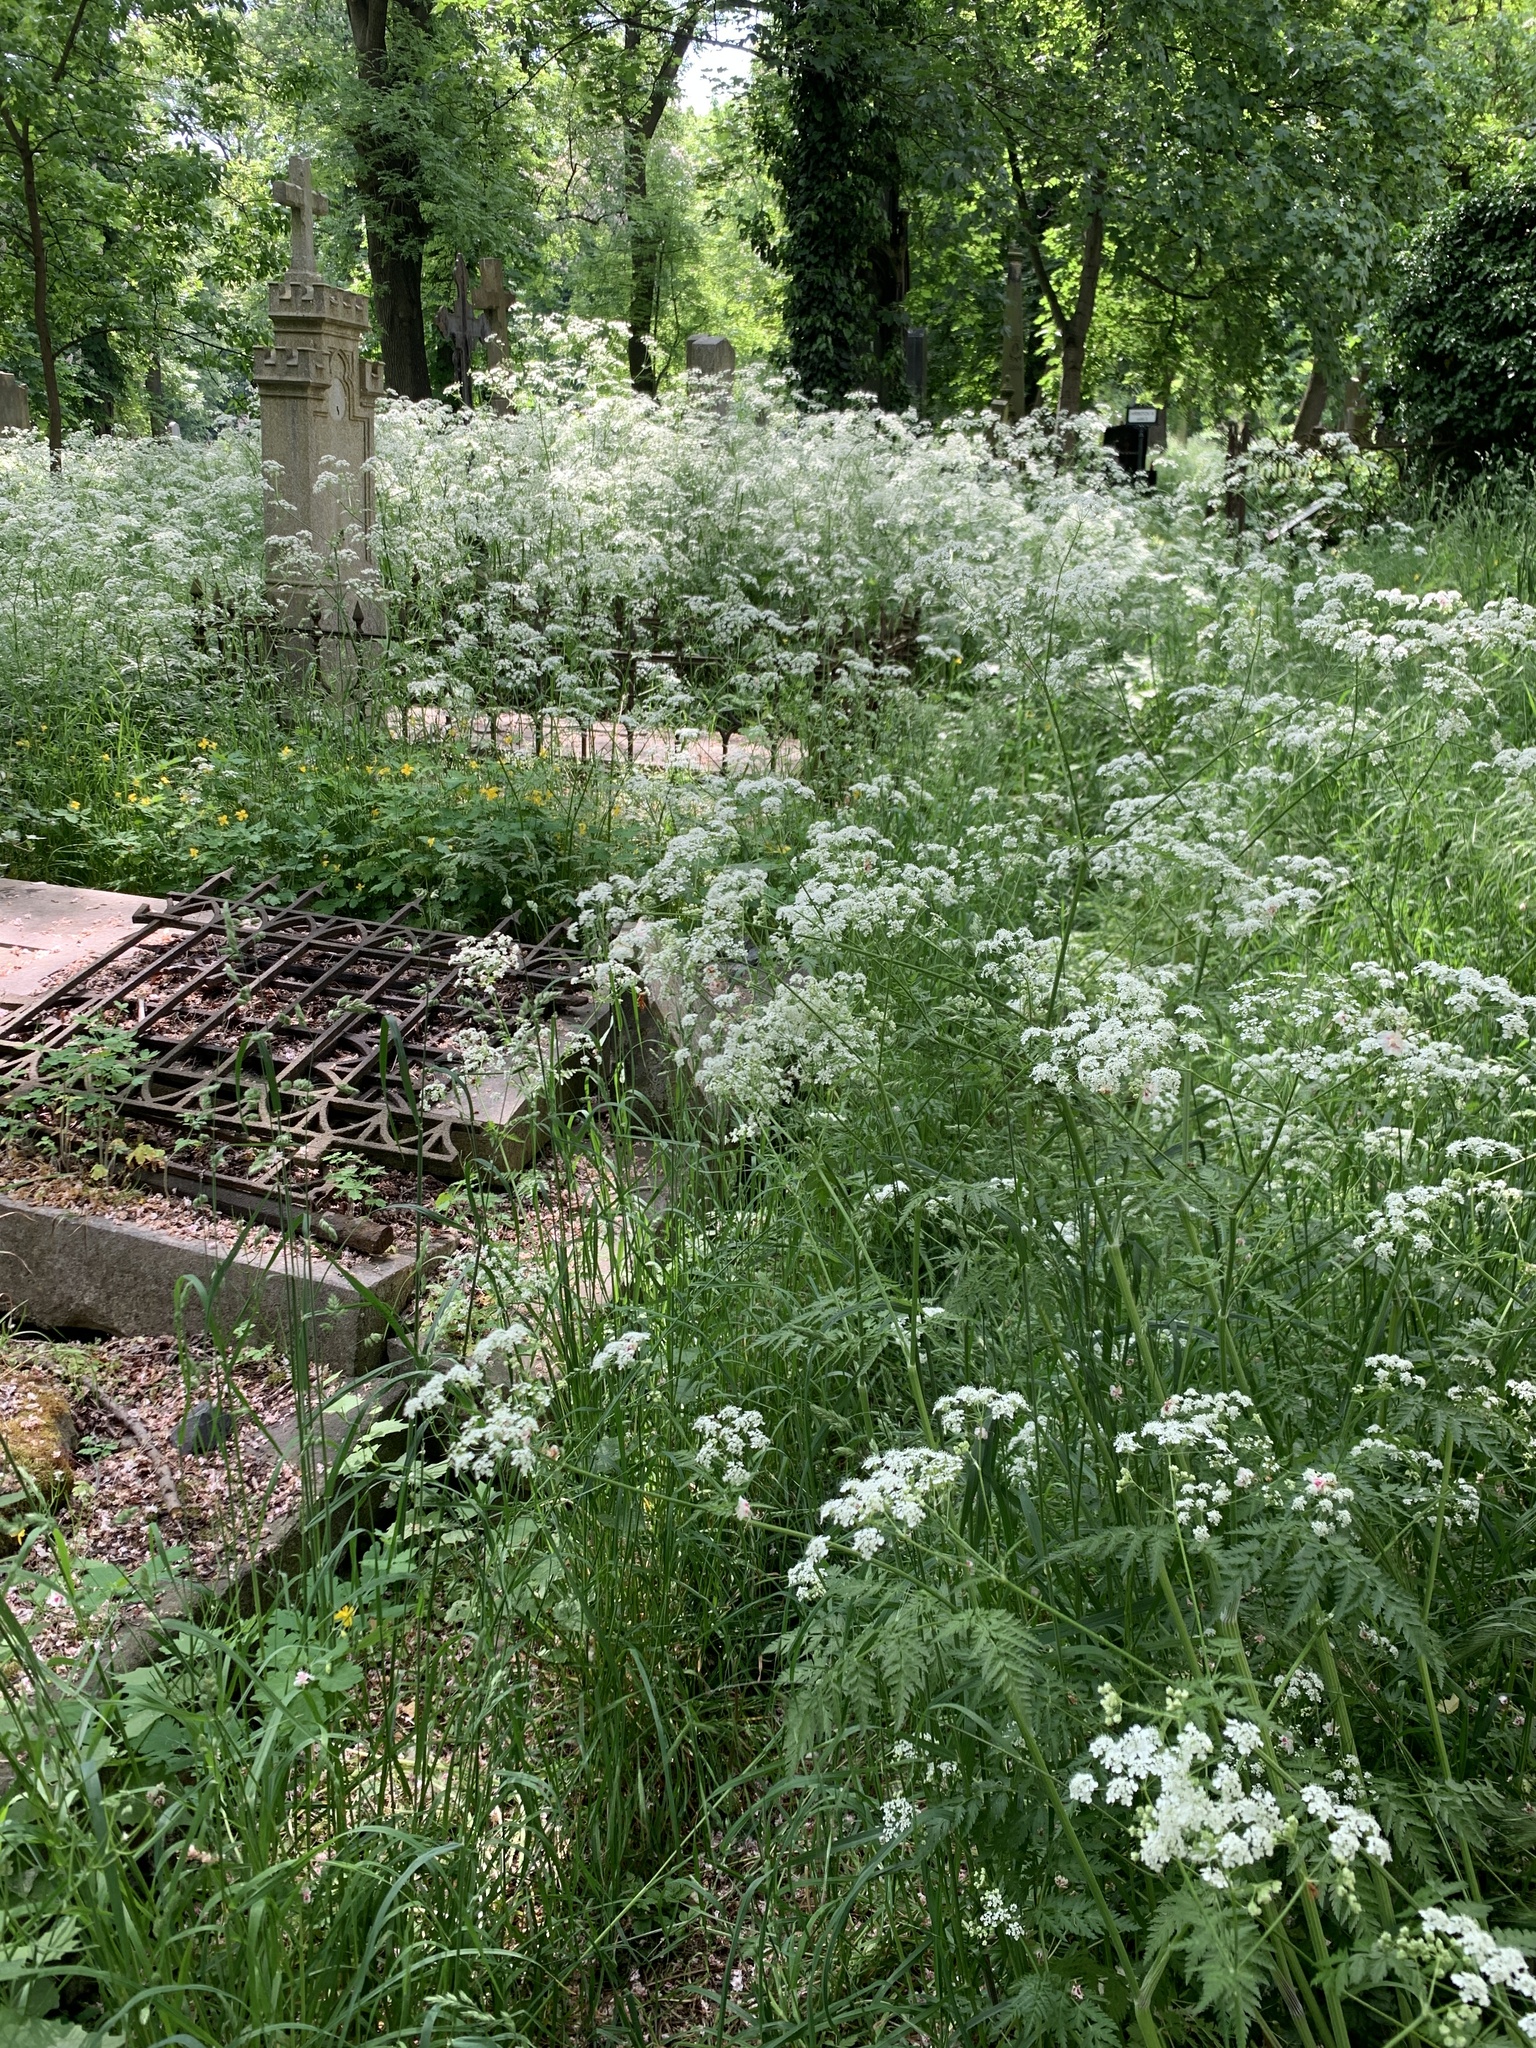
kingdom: Plantae
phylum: Tracheophyta
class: Magnoliopsida
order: Apiales
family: Apiaceae
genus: Anthriscus
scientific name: Anthriscus sylvestris
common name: Cow parsley
